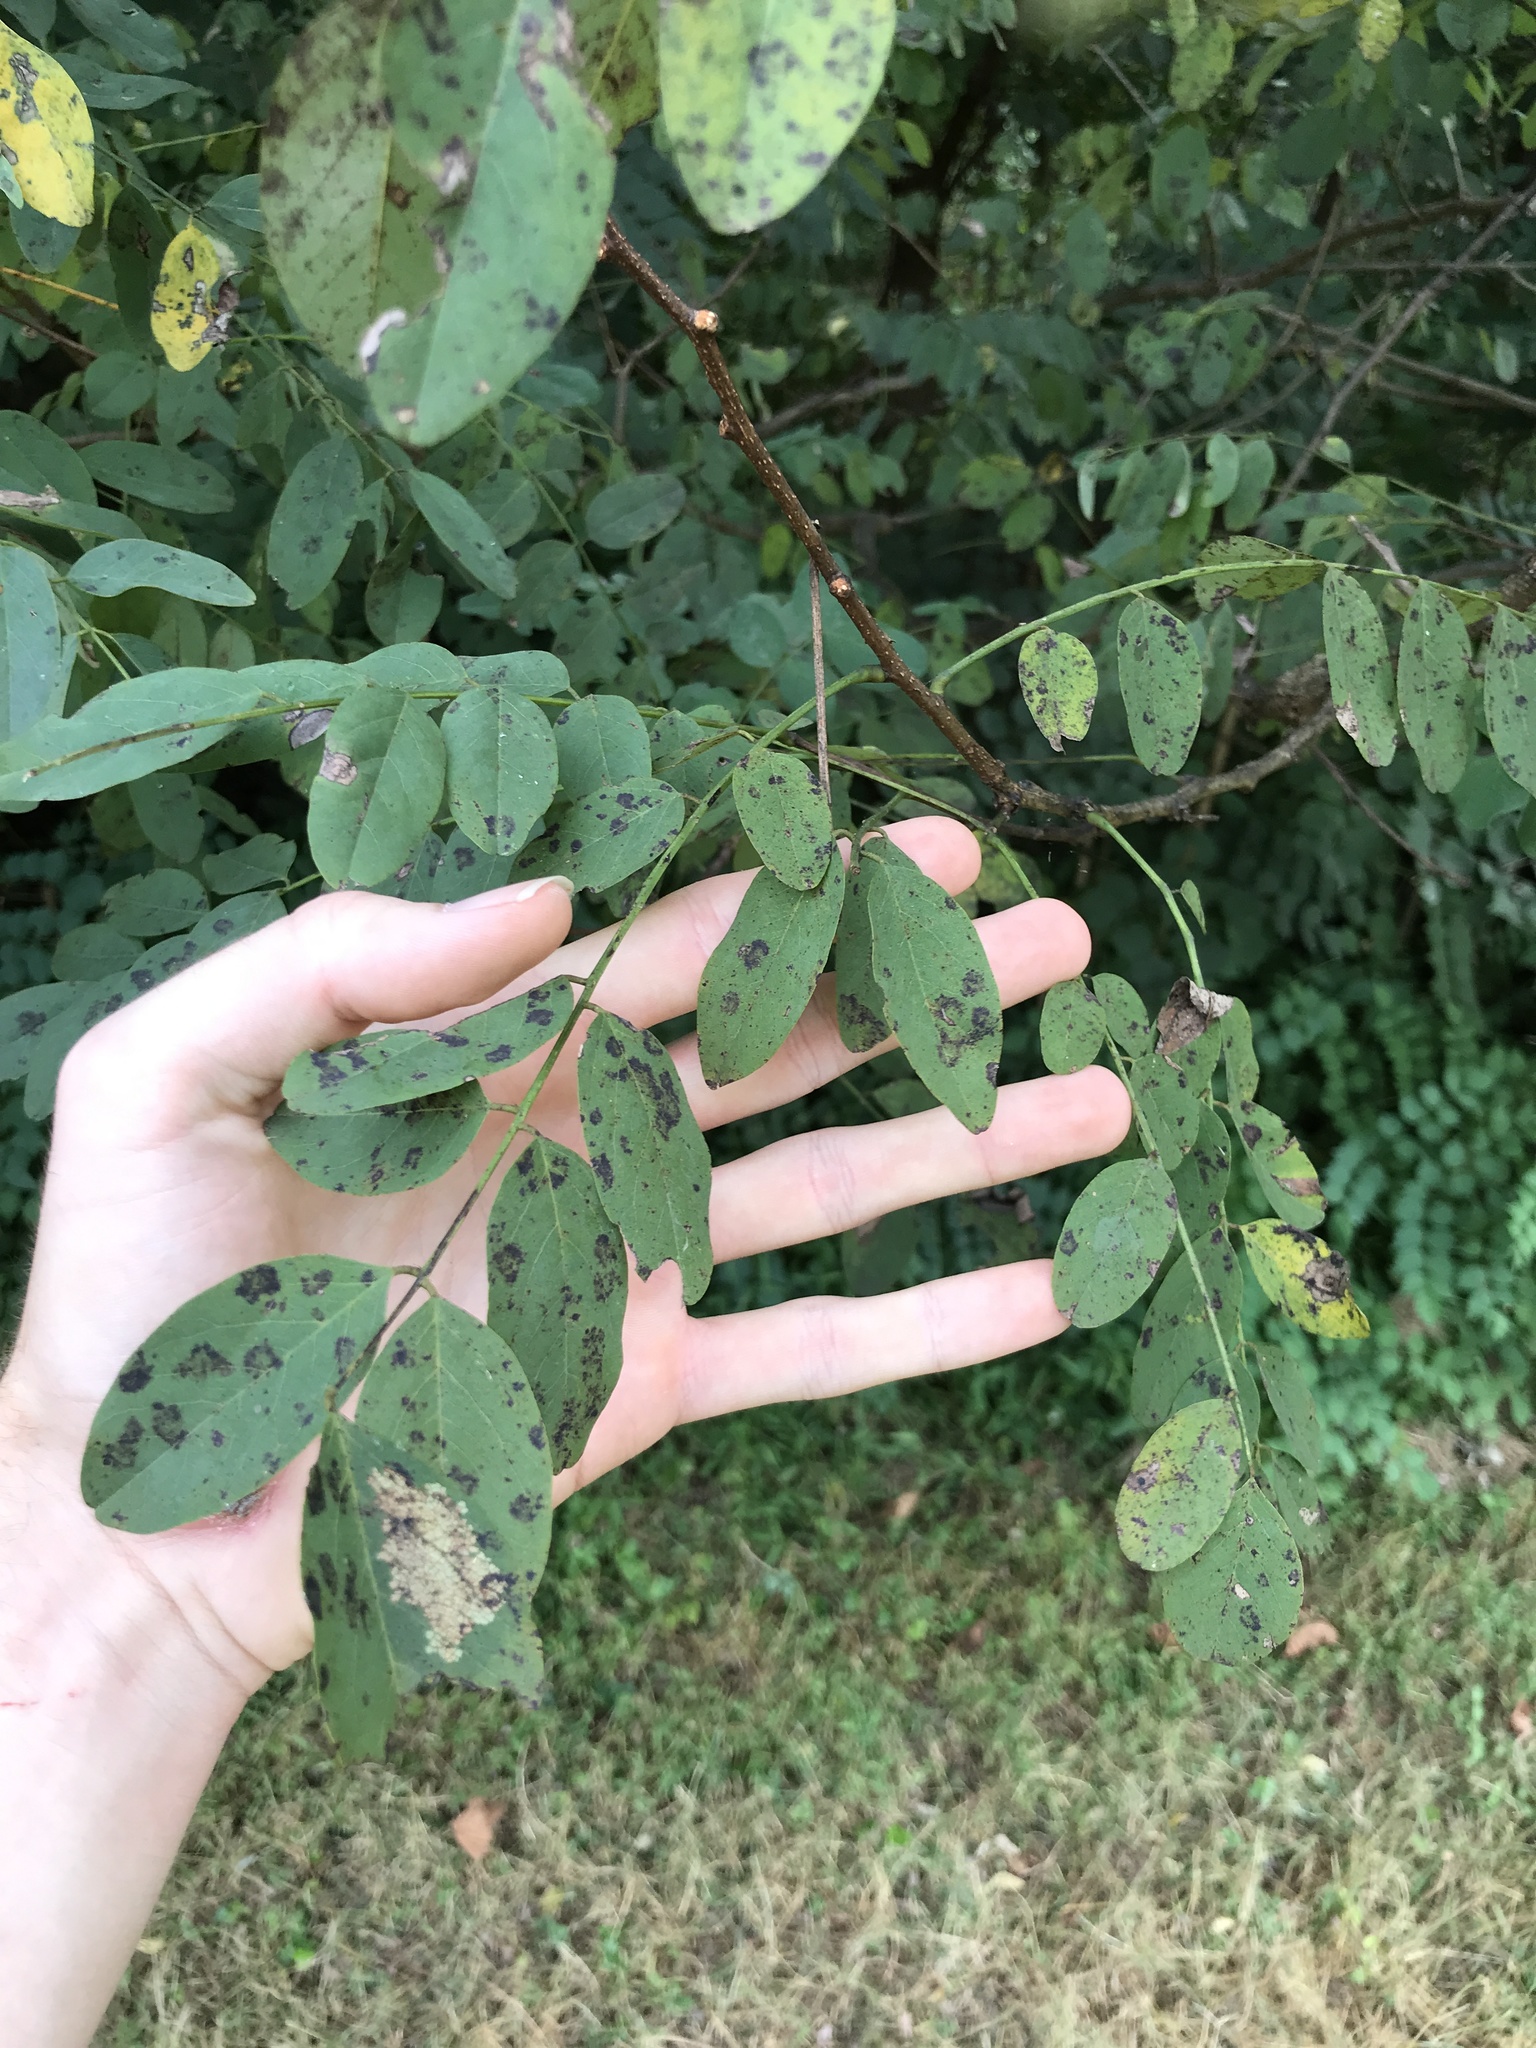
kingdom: Plantae
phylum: Tracheophyta
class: Magnoliopsida
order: Fabales
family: Fabaceae
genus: Robinia
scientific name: Robinia pseudoacacia
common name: Black locust
